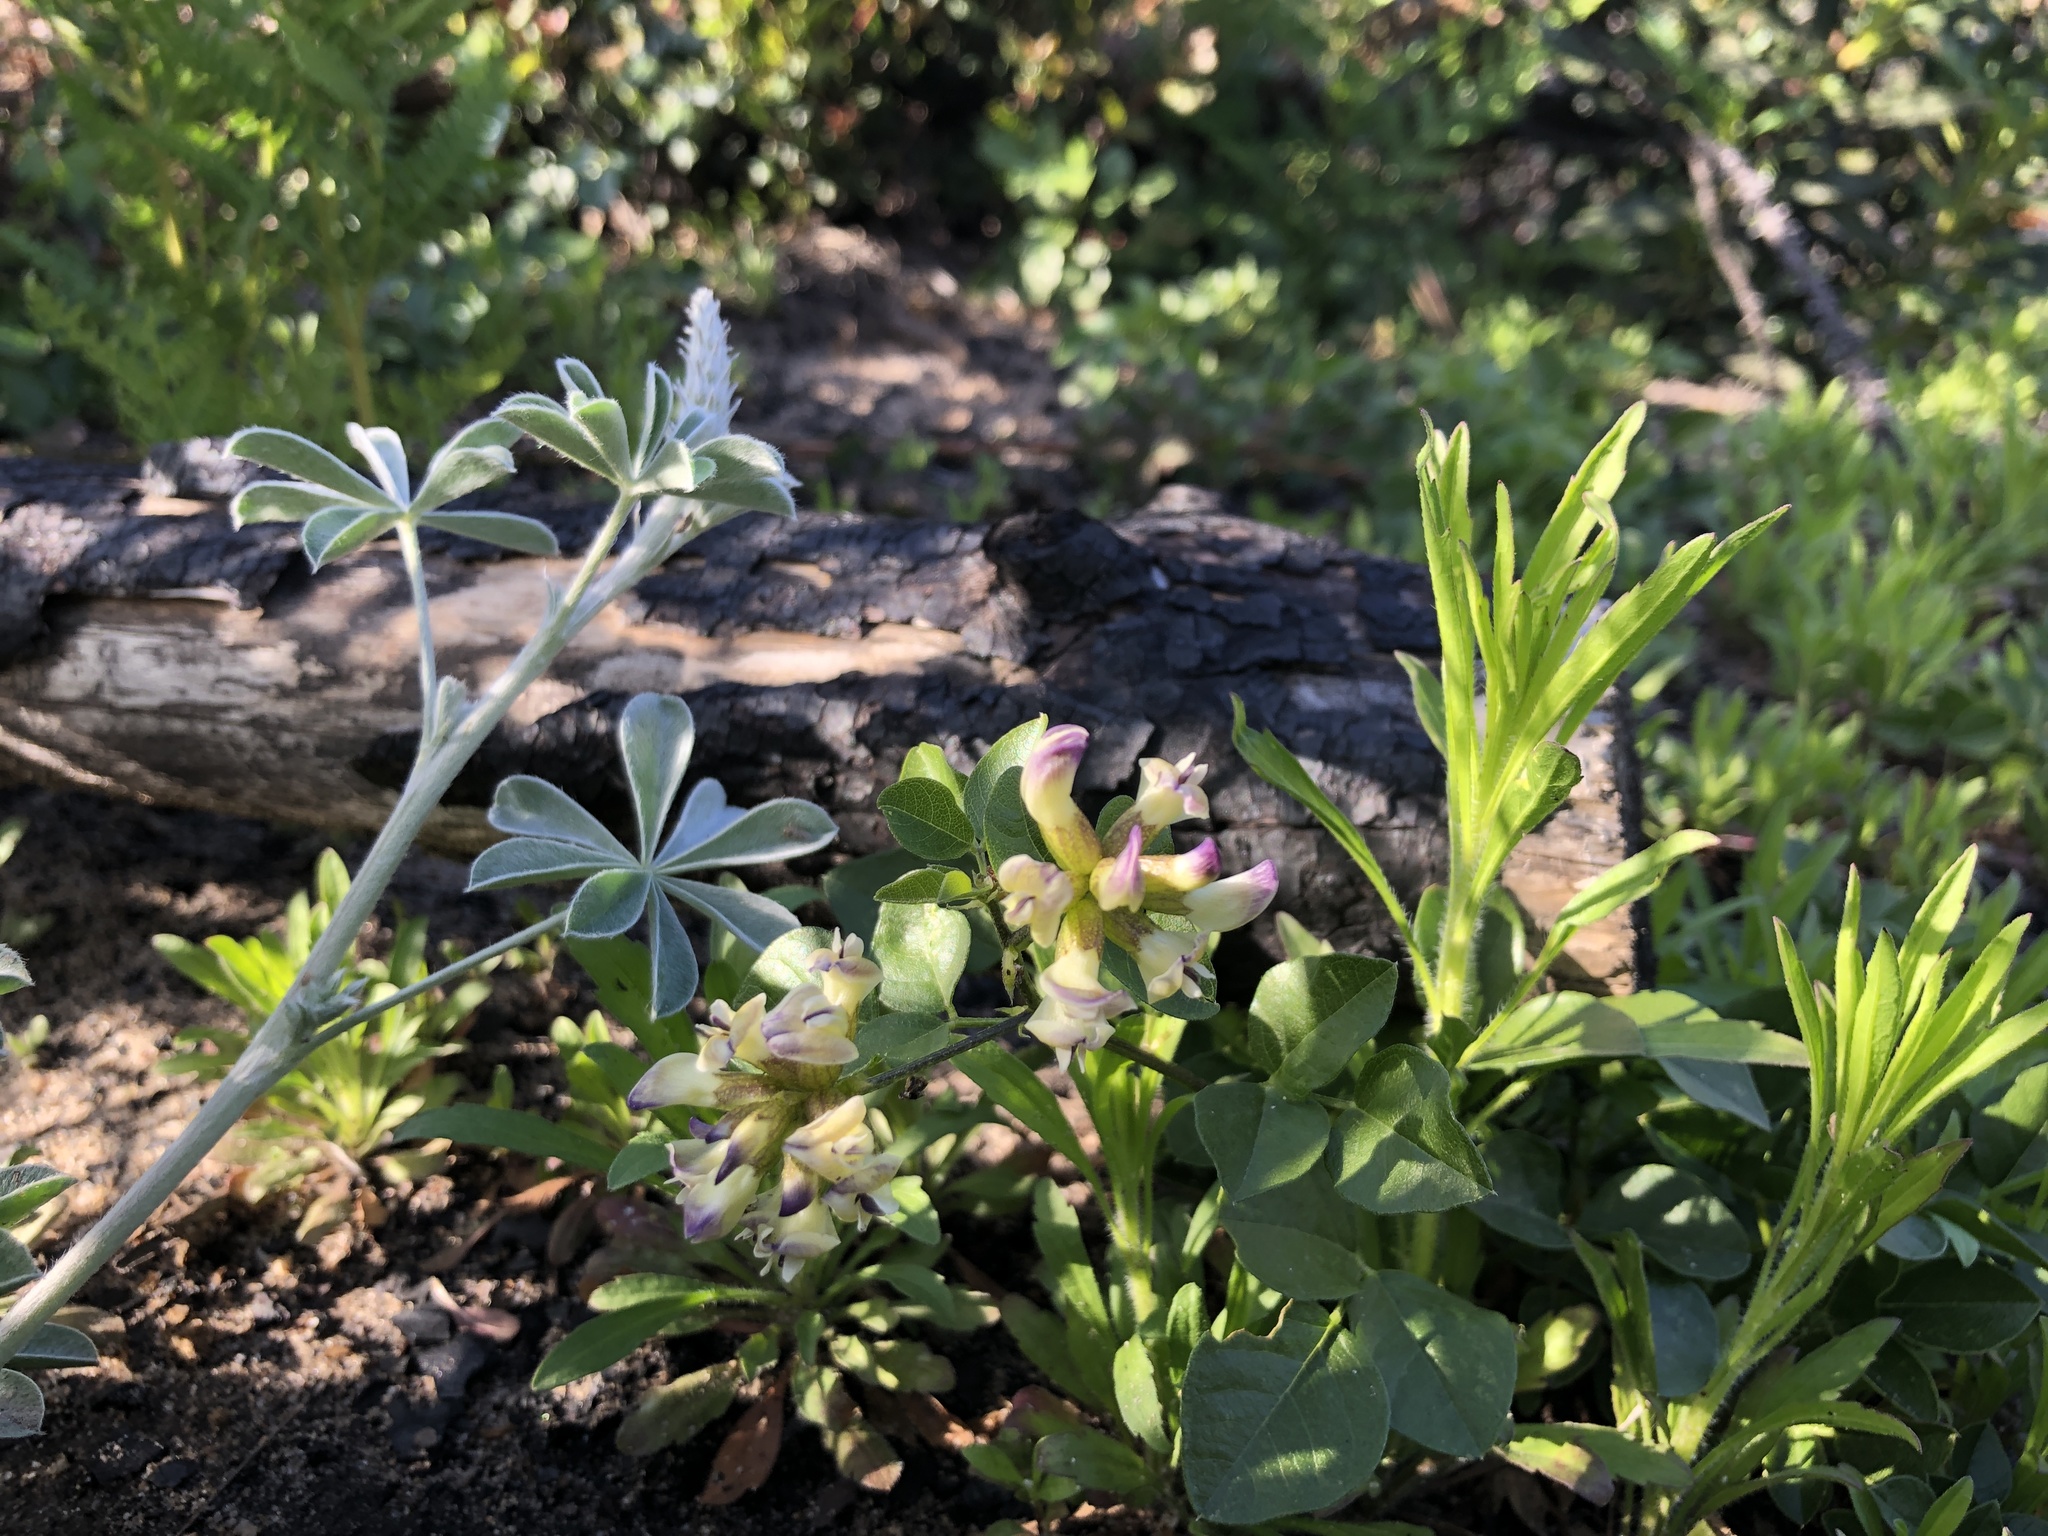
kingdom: Plantae
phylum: Tracheophyta
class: Magnoliopsida
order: Fabales
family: Fabaceae
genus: Rupertia
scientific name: Rupertia physodes
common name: California-tea
